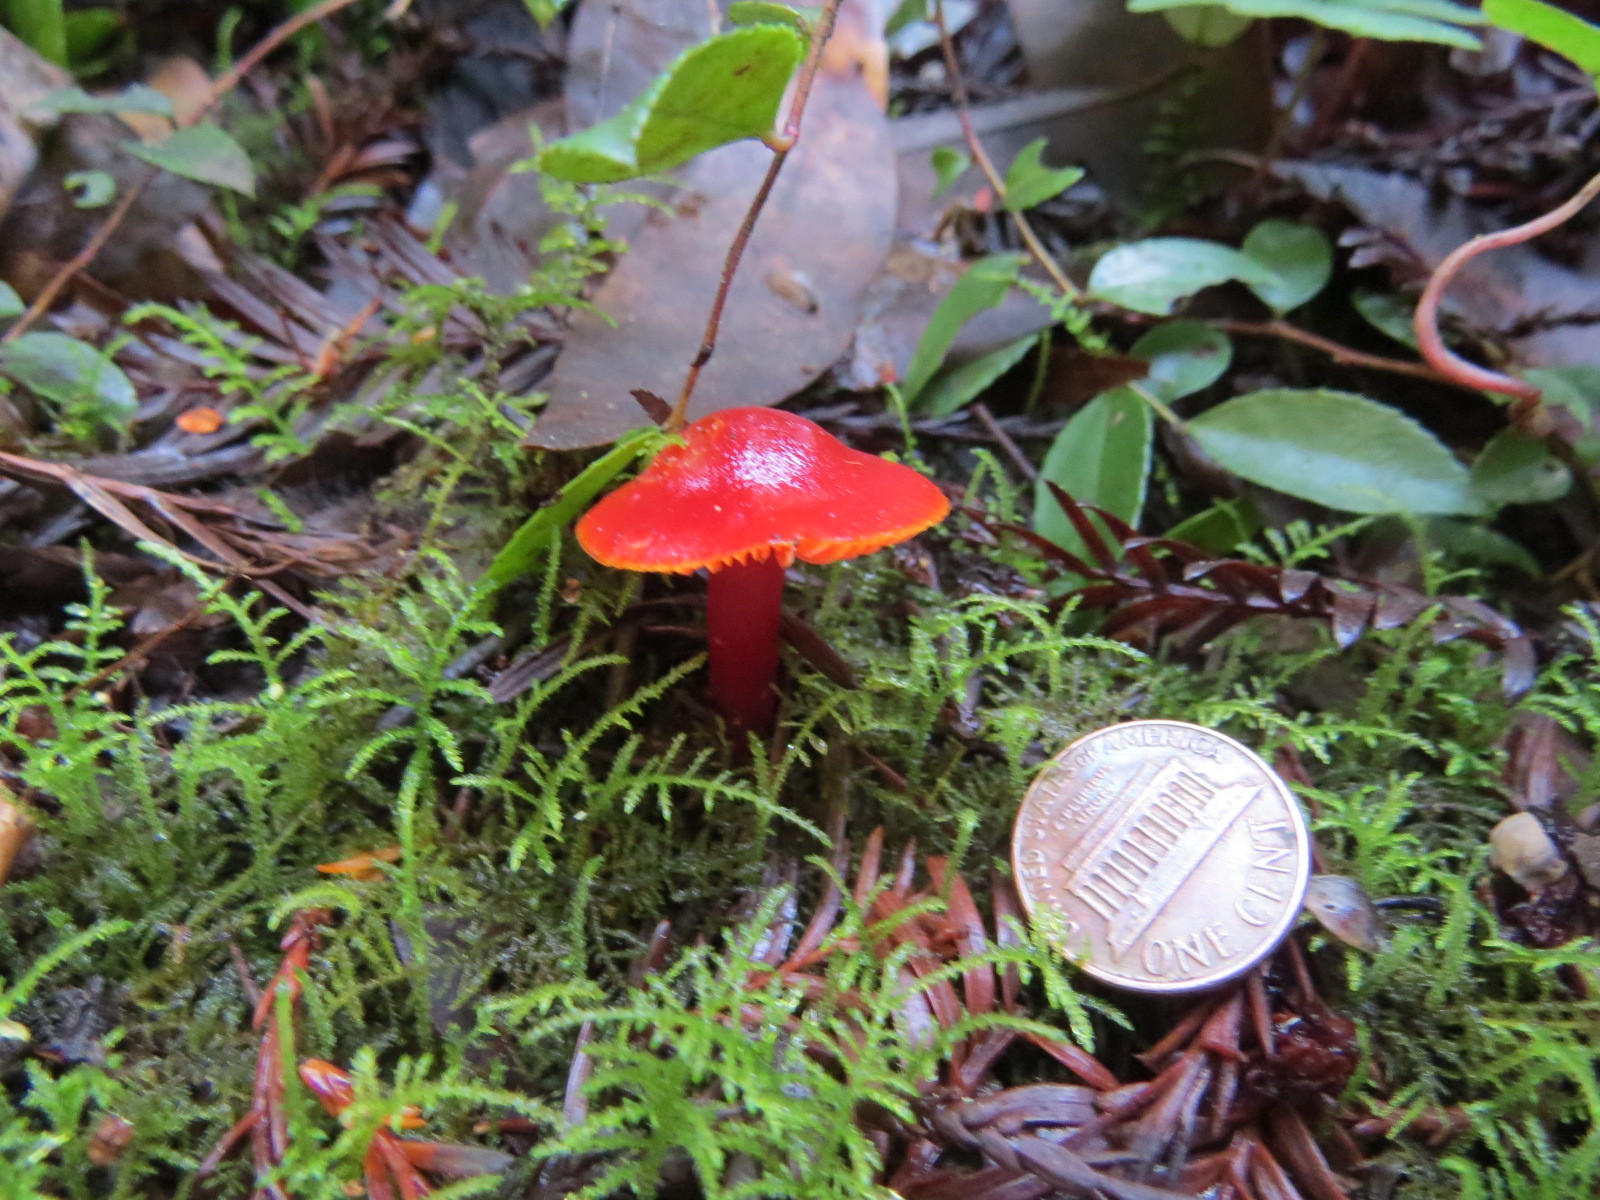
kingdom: Fungi
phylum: Basidiomycota
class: Agaricomycetes
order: Agaricales
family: Hygrophoraceae
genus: Hygrocybe
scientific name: Hygrocybe coccinea
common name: Scarlet hood
